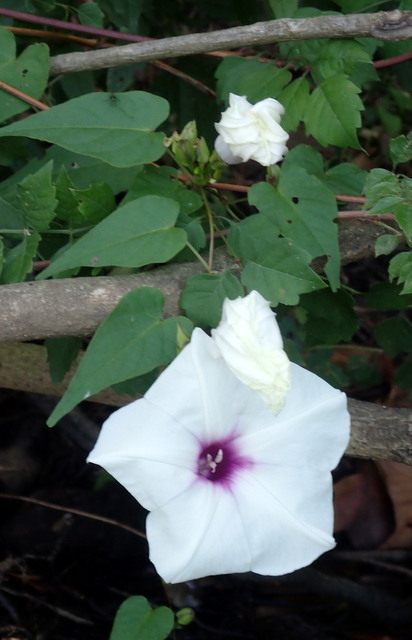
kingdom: Plantae
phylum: Tracheophyta
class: Magnoliopsida
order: Solanales
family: Convolvulaceae
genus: Ipomoea
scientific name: Ipomoea pandurata
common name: Man-of-the-earth
